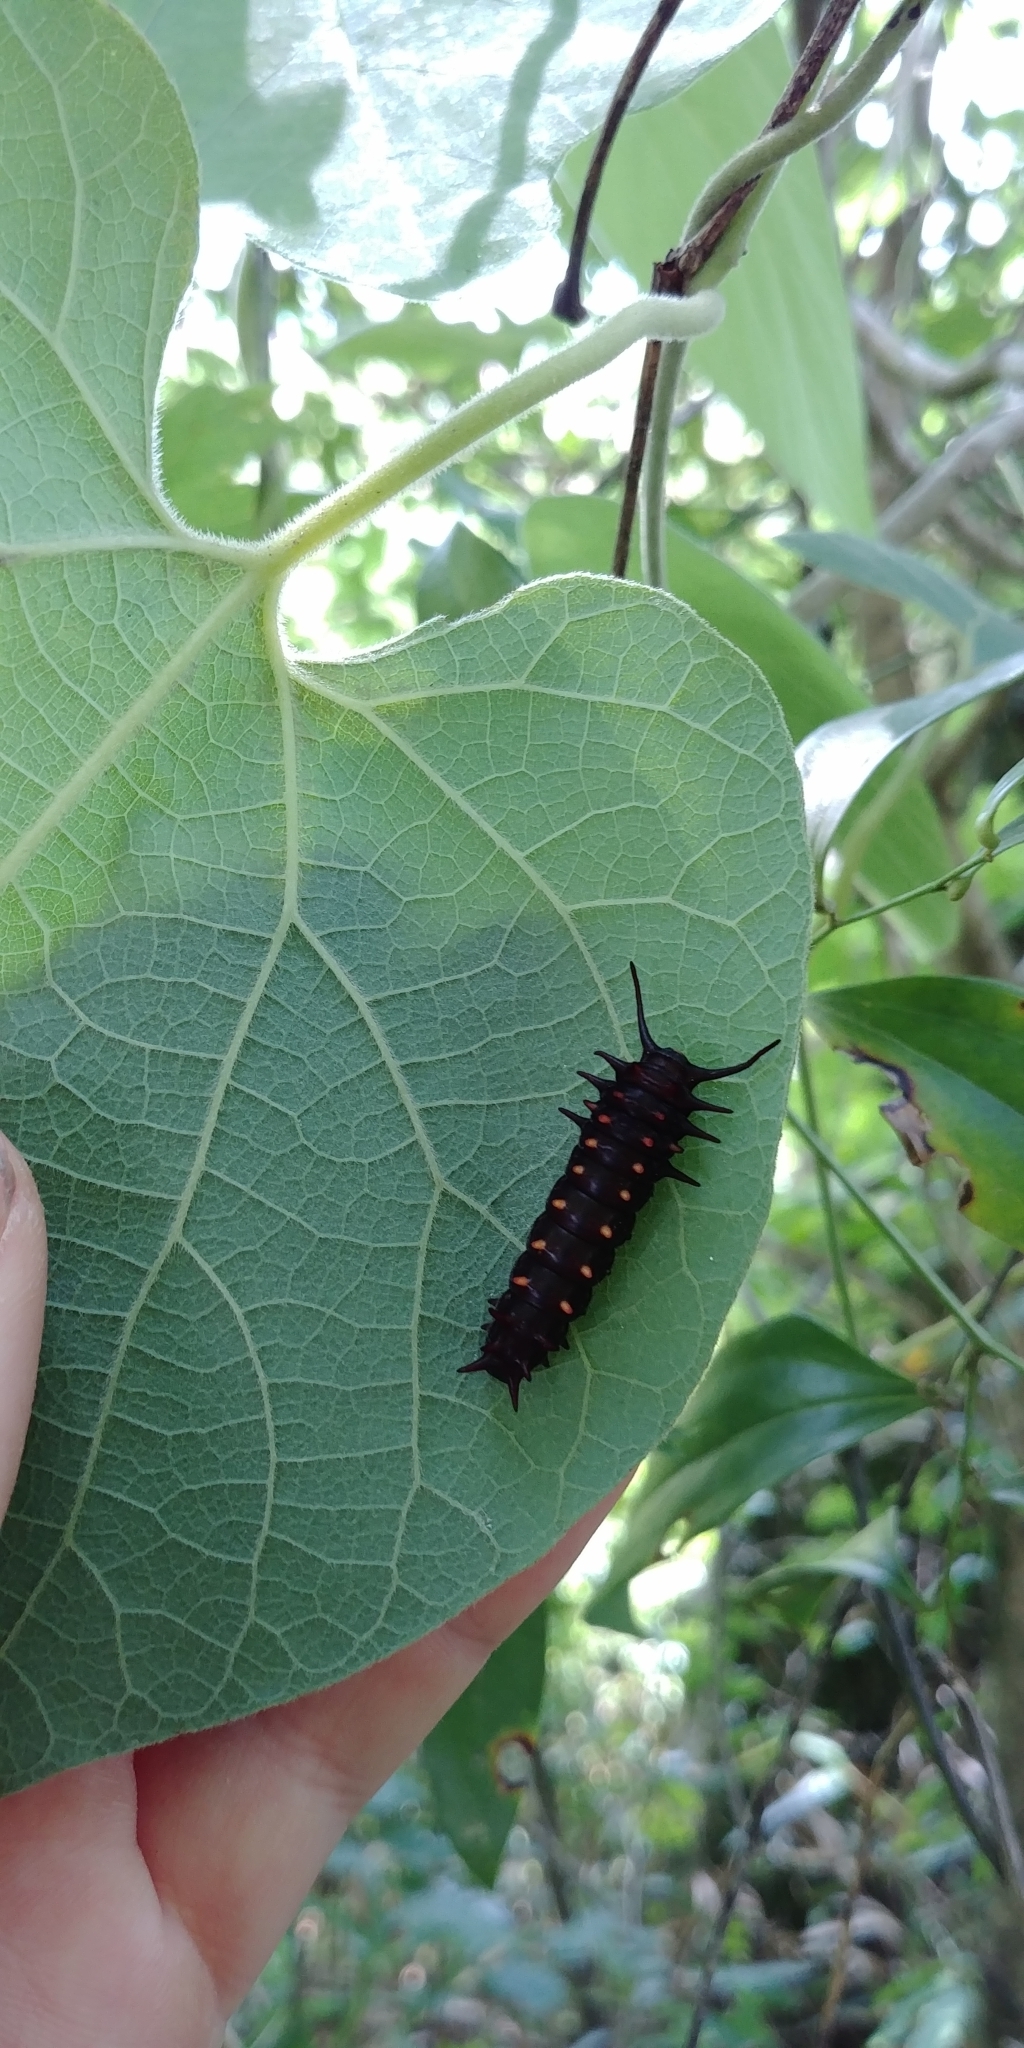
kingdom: Animalia
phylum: Arthropoda
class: Insecta
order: Lepidoptera
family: Papilionidae
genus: Battus
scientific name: Battus philenor
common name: Pipevine swallowtail
